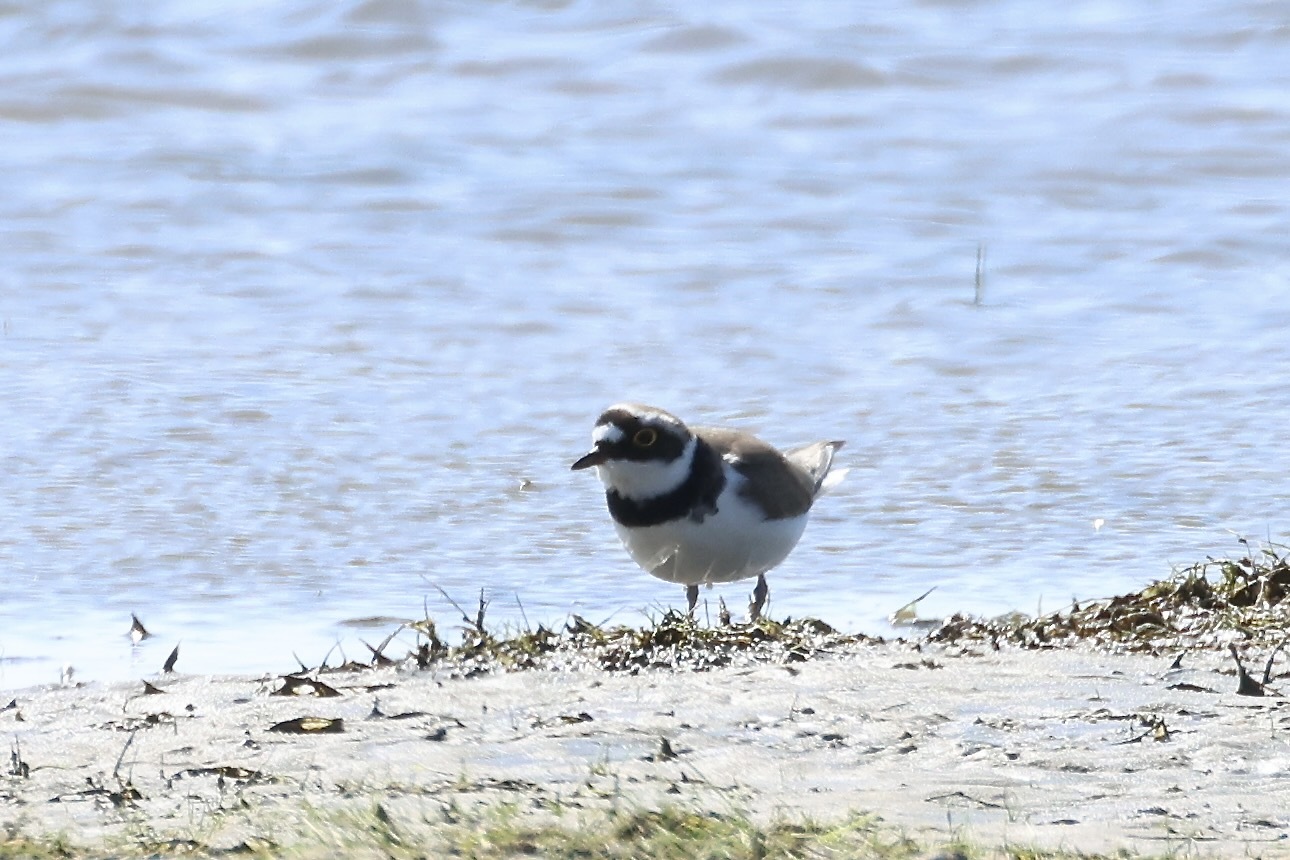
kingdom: Animalia
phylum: Chordata
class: Aves
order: Charadriiformes
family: Charadriidae
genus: Charadrius
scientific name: Charadrius dubius
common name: Little ringed plover
